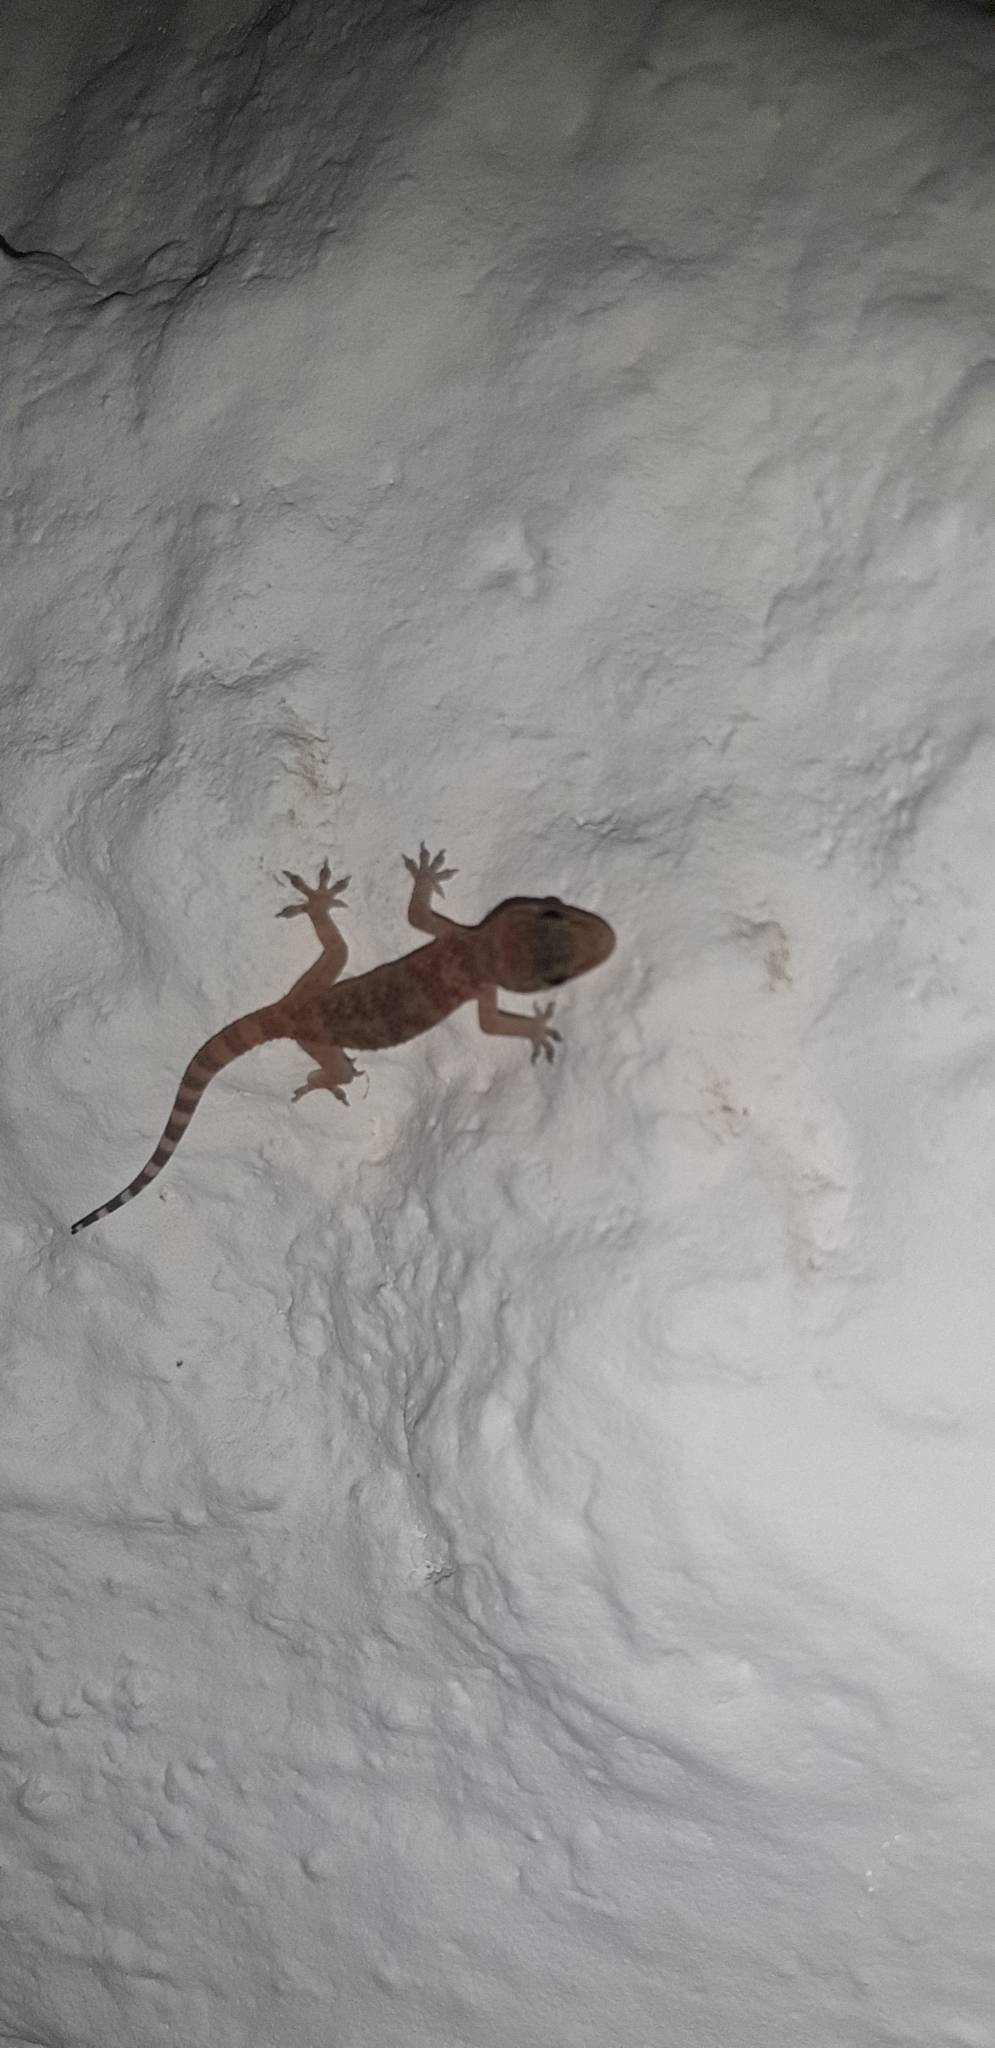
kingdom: Animalia
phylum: Chordata
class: Squamata
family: Gekkonidae
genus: Hemidactylus
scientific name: Hemidactylus turcicus
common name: Turkish gecko
